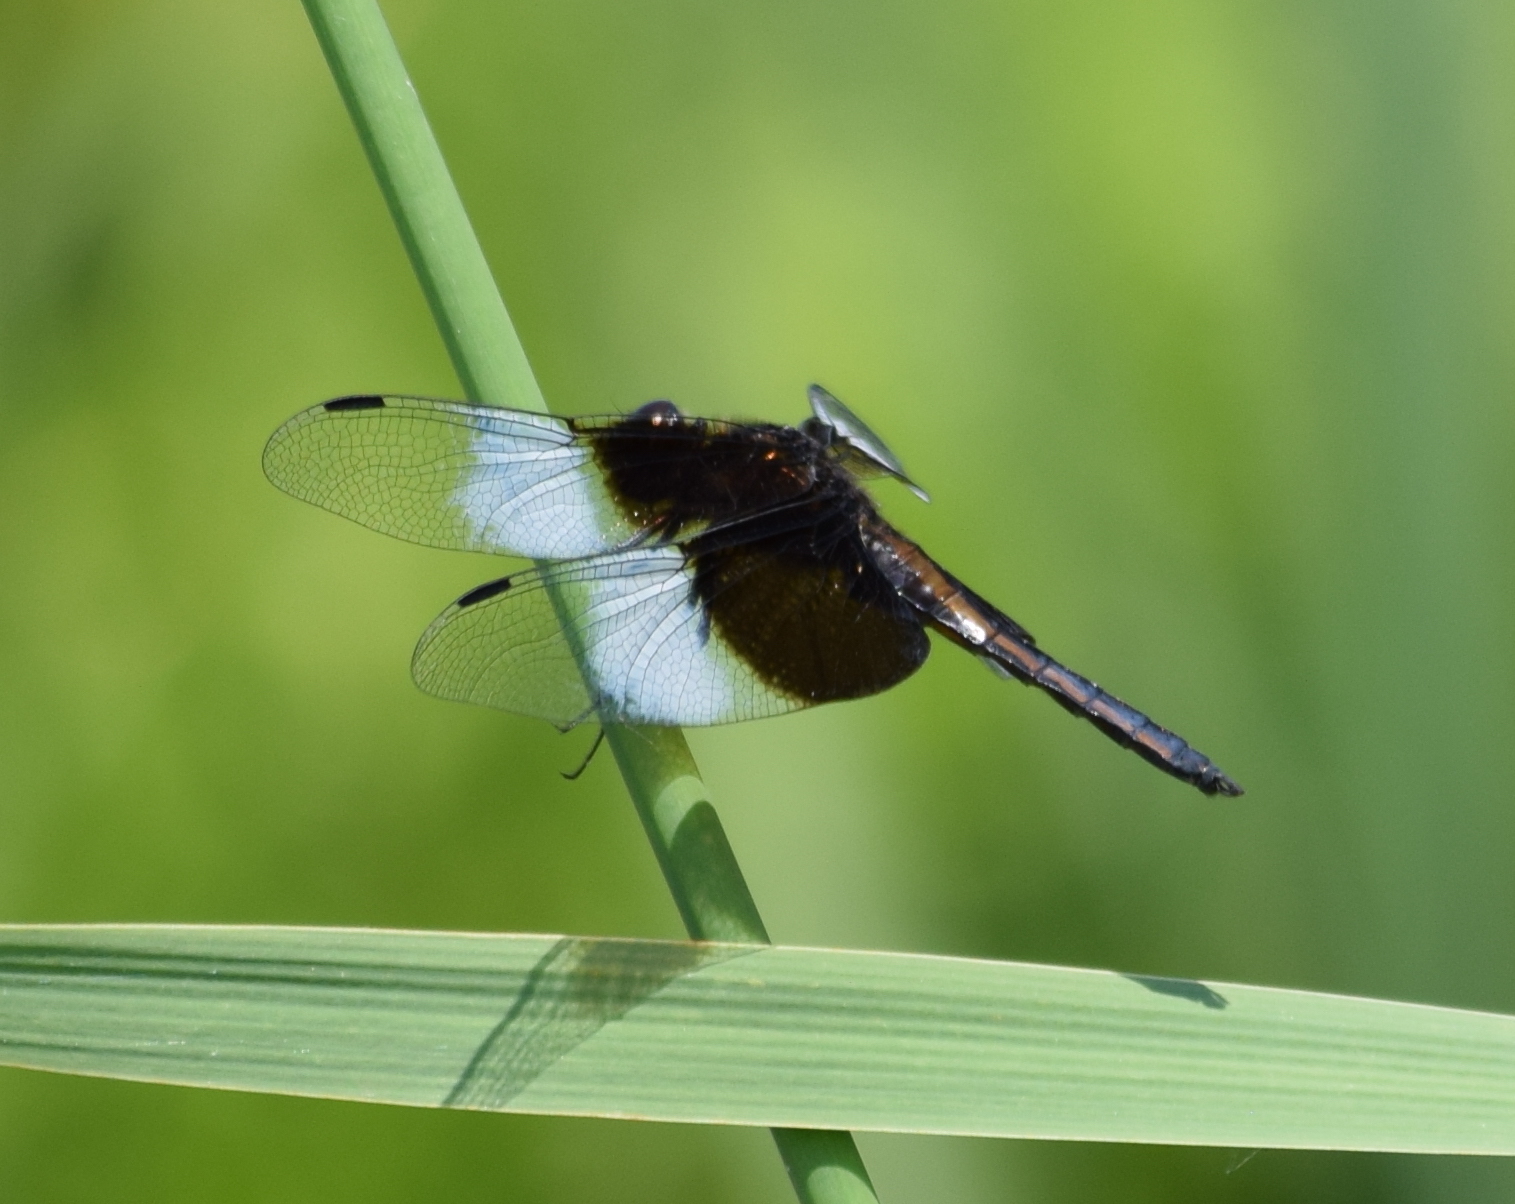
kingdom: Animalia
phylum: Arthropoda
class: Insecta
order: Odonata
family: Libellulidae
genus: Libellula
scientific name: Libellula luctuosa
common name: Widow skimmer
